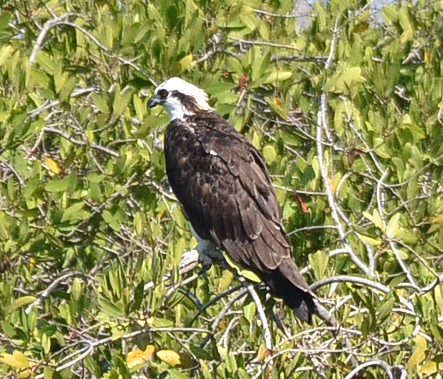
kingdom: Animalia
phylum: Chordata
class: Aves
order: Accipitriformes
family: Pandionidae
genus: Pandion
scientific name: Pandion haliaetus
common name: Osprey
